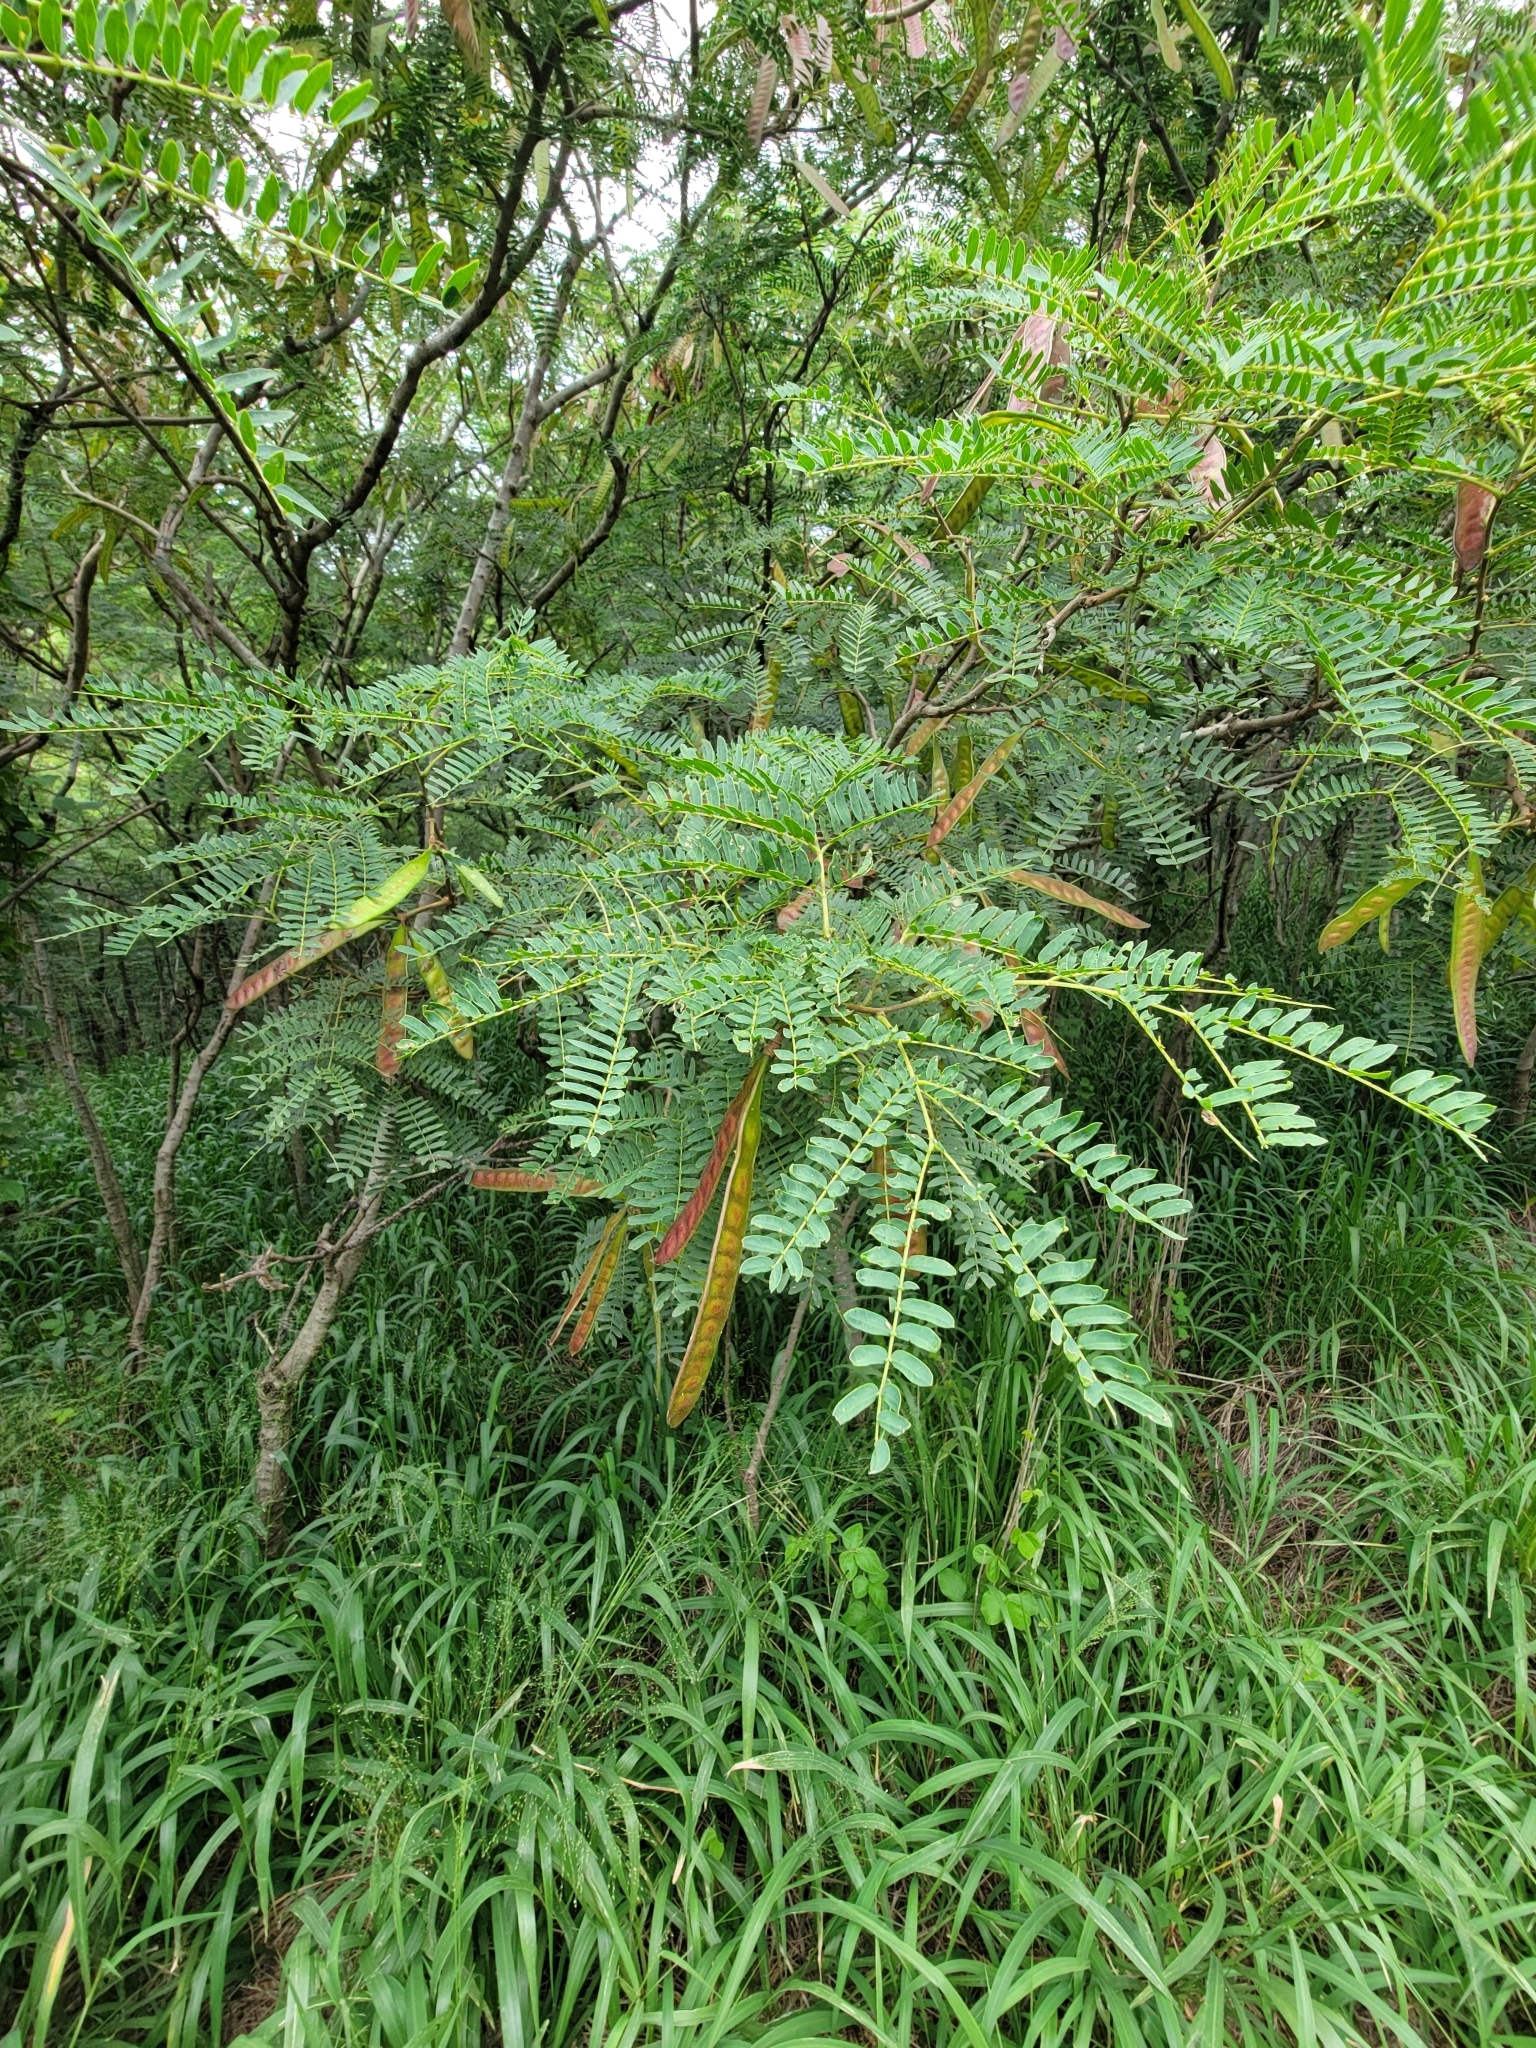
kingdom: Plantae
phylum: Tracheophyta
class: Magnoliopsida
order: Fabales
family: Fabaceae
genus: Leucaena
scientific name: Leucaena leucocephala
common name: White leadtree
